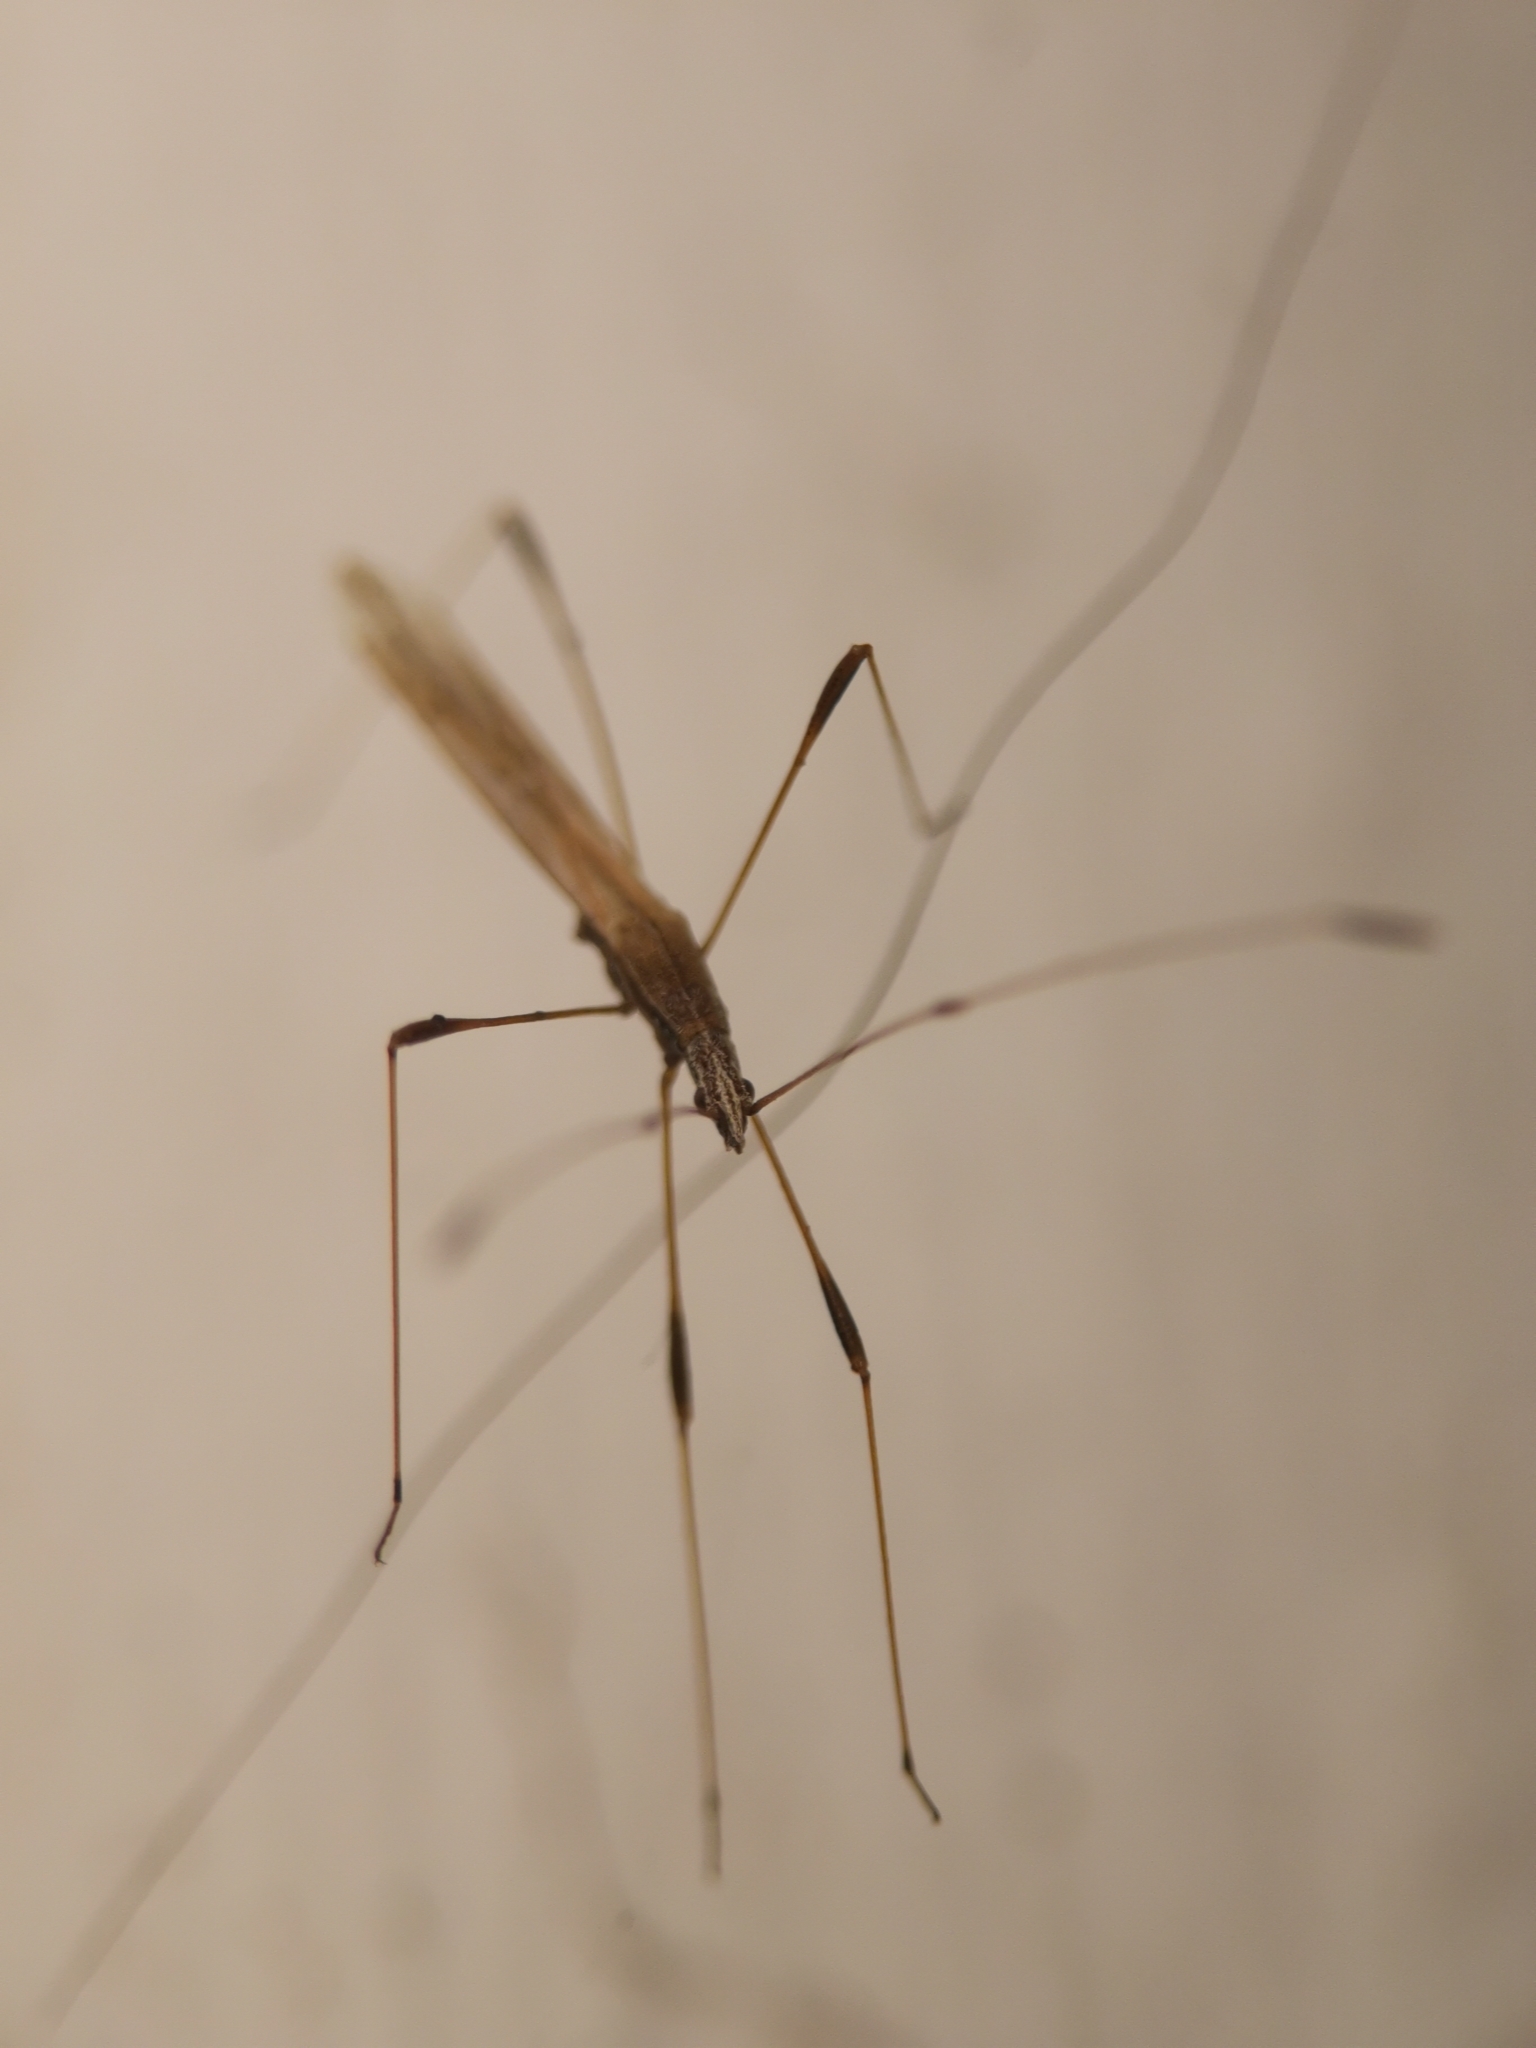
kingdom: Animalia
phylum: Arthropoda
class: Insecta
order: Hemiptera
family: Berytidae
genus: Neides
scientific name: Neides tipularius
